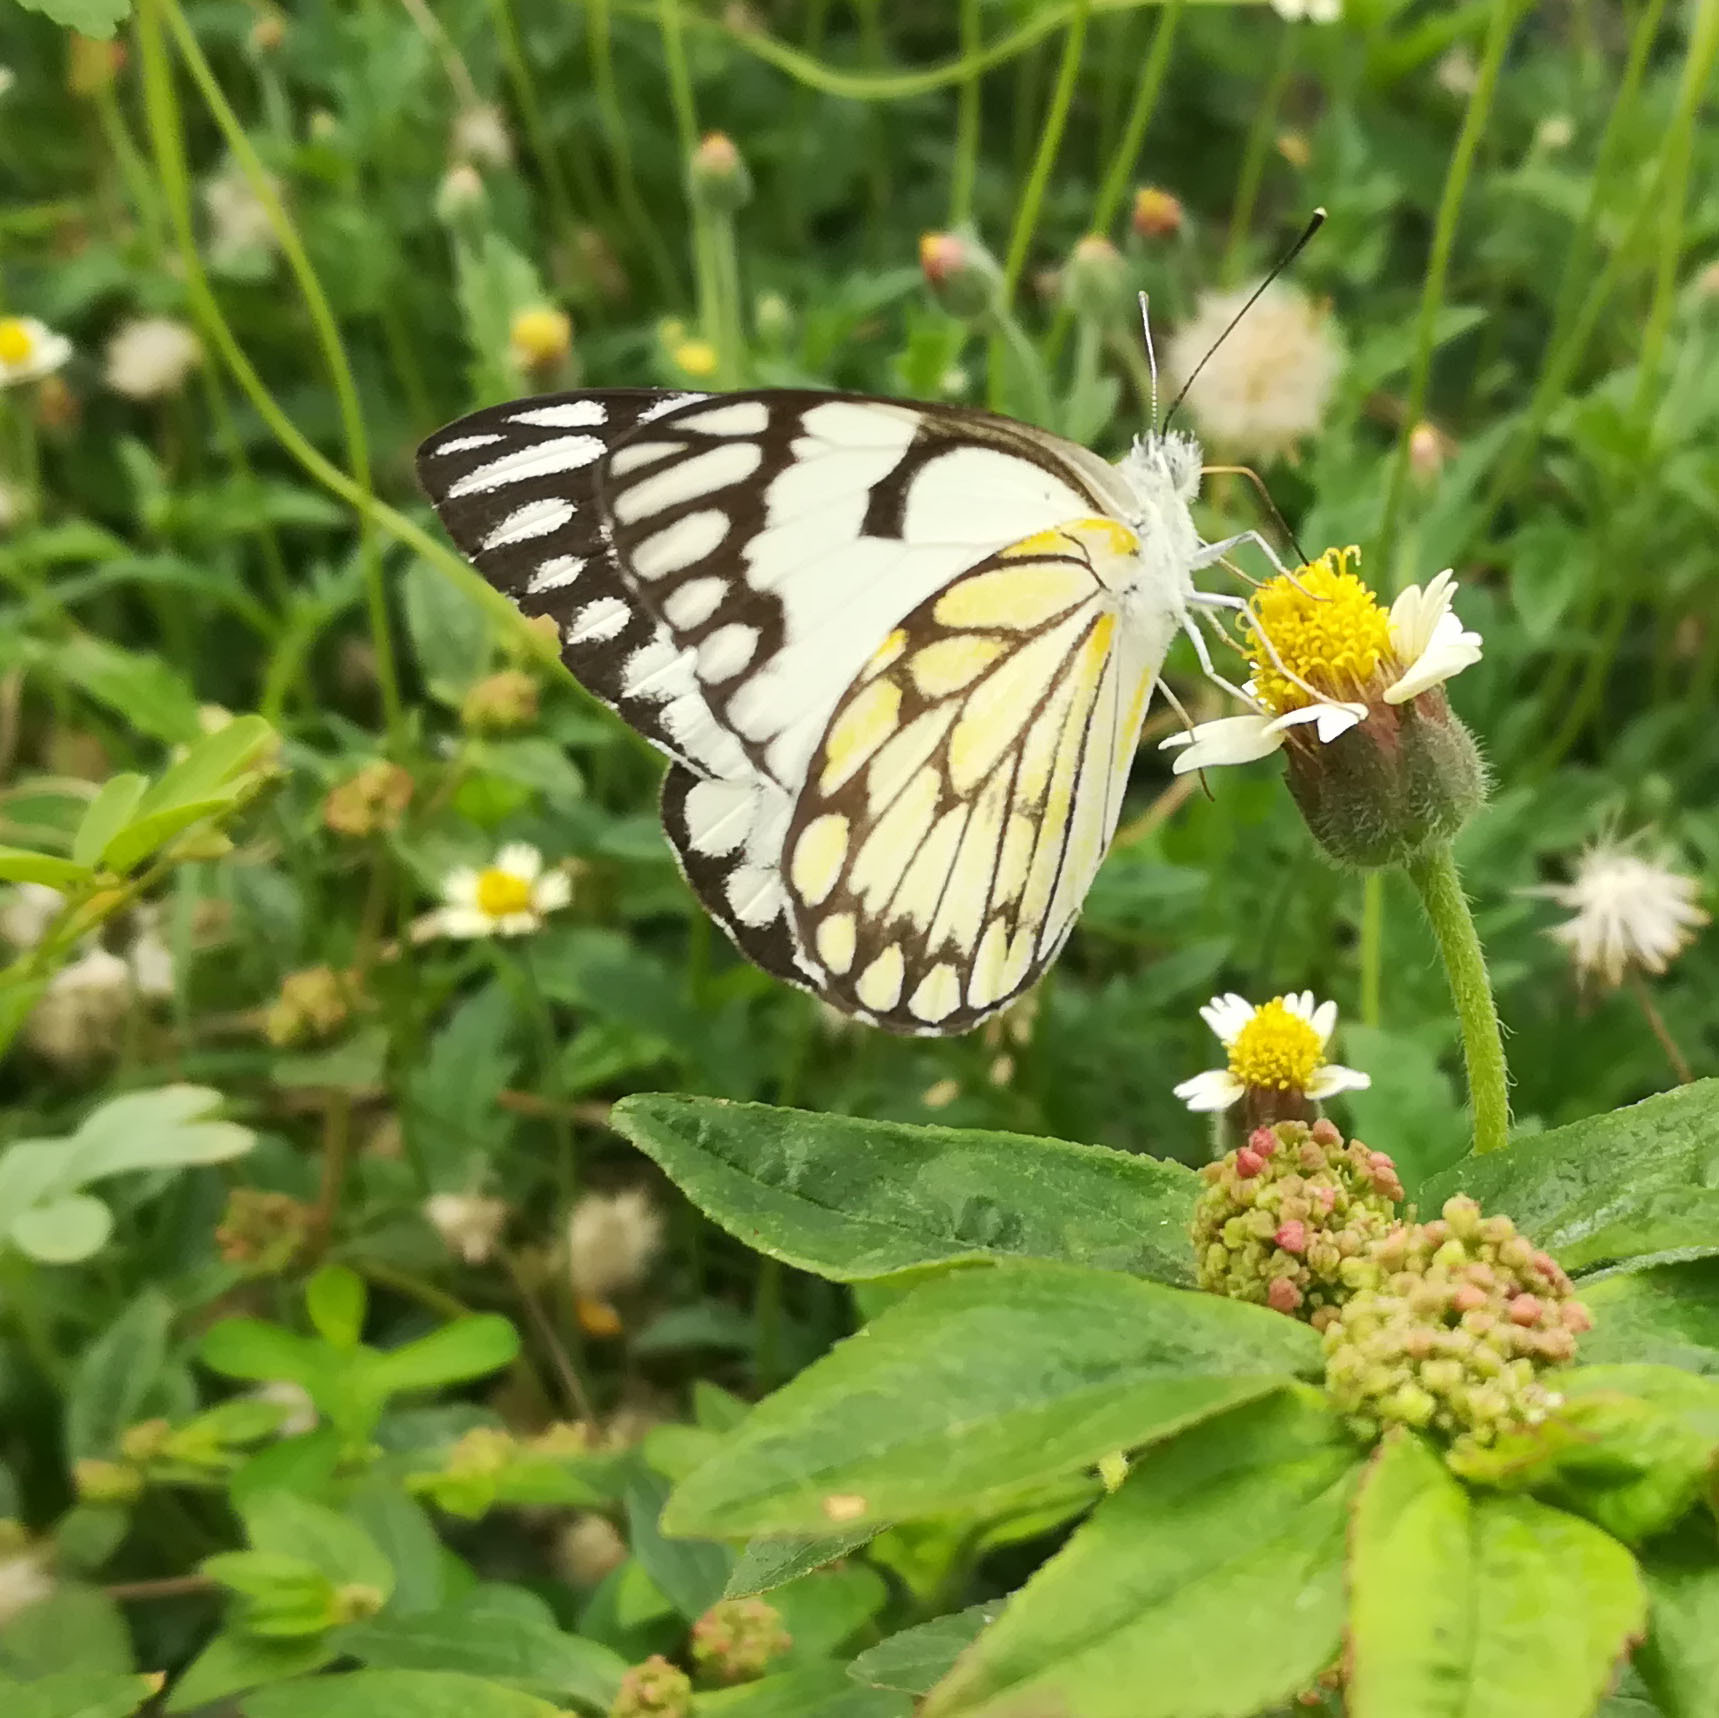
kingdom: Animalia
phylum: Arthropoda
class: Insecta
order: Lepidoptera
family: Pieridae
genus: Belenois
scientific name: Belenois aurota
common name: Brown-veined white
